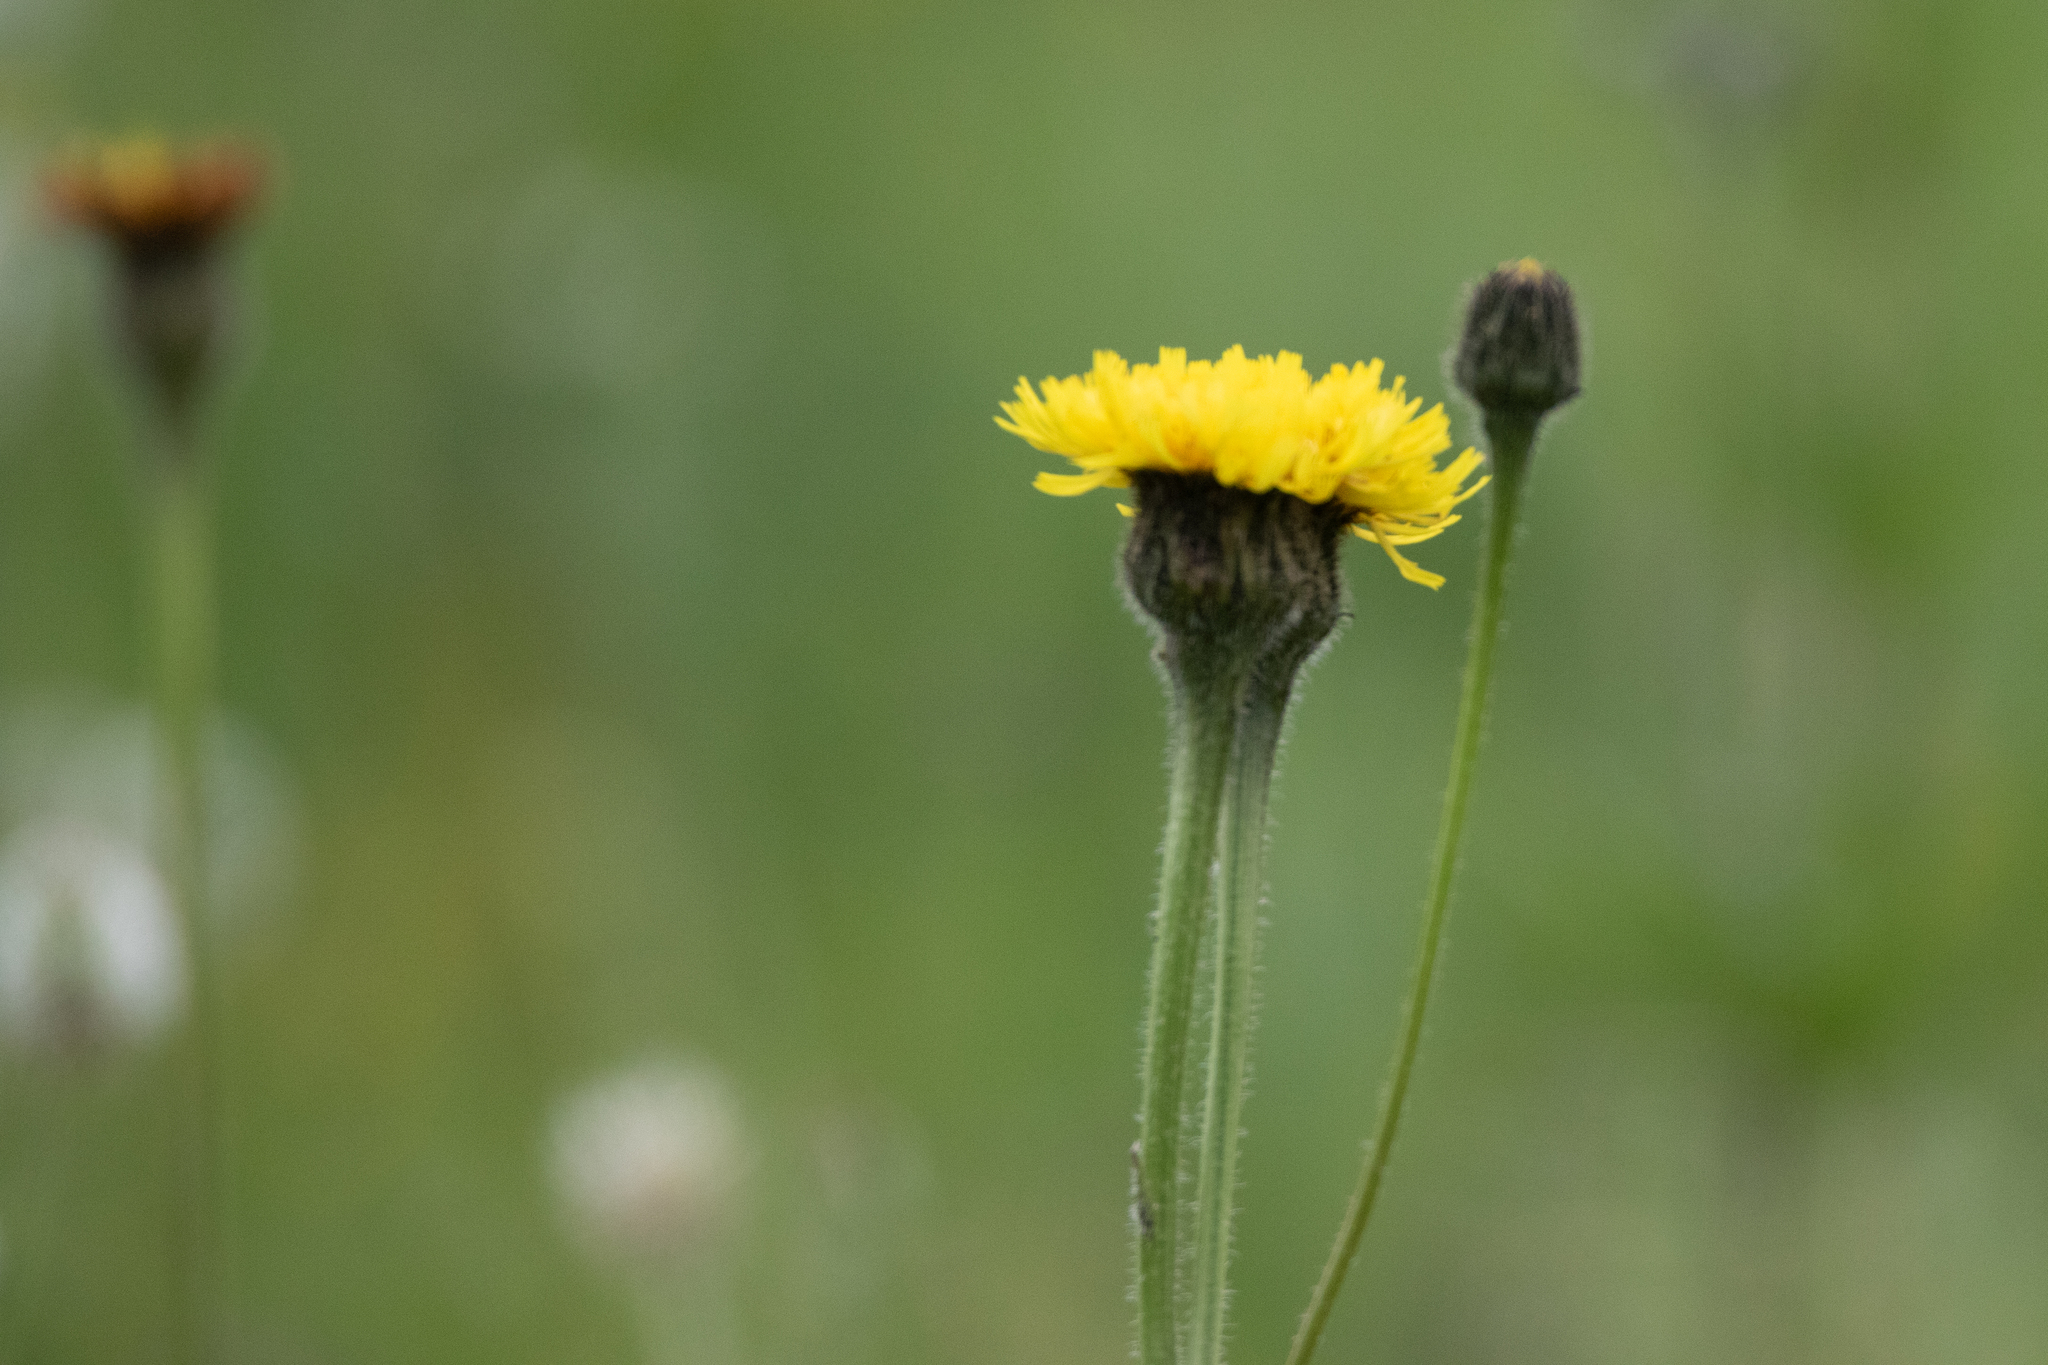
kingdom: Plantae
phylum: Tracheophyta
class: Magnoliopsida
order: Asterales
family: Asteraceae
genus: Trommsdorffia
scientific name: Trommsdorffia maculata
